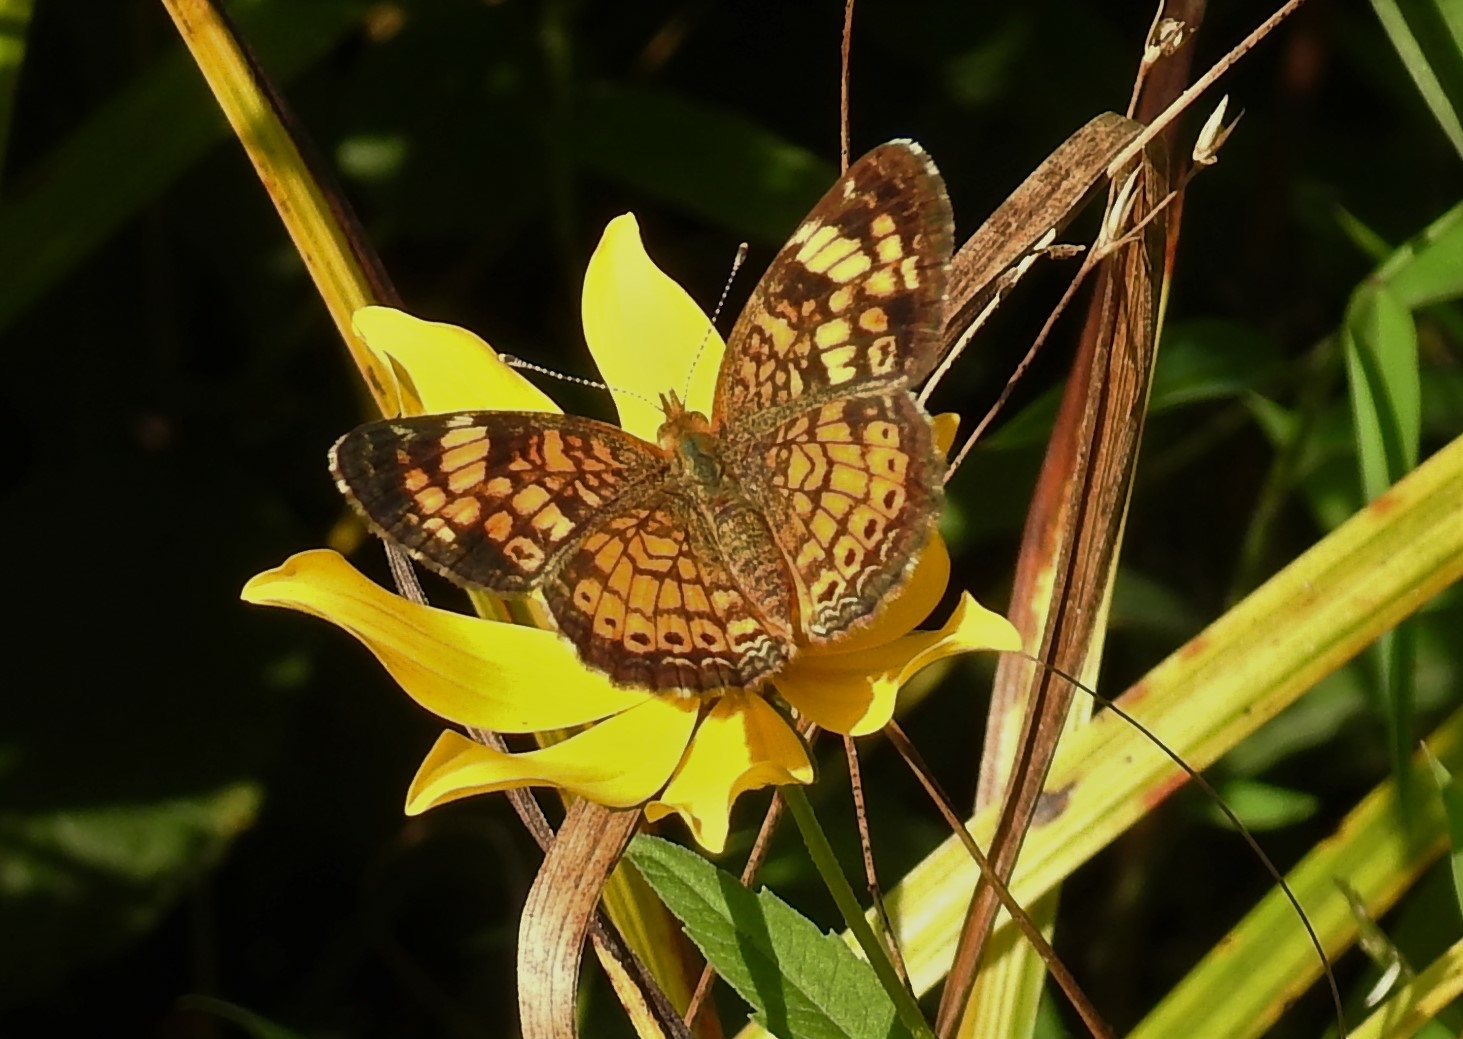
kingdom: Animalia
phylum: Arthropoda
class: Insecta
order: Lepidoptera
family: Nymphalidae
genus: Phyciodes
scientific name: Phyciodes tharos
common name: Pearl crescent
